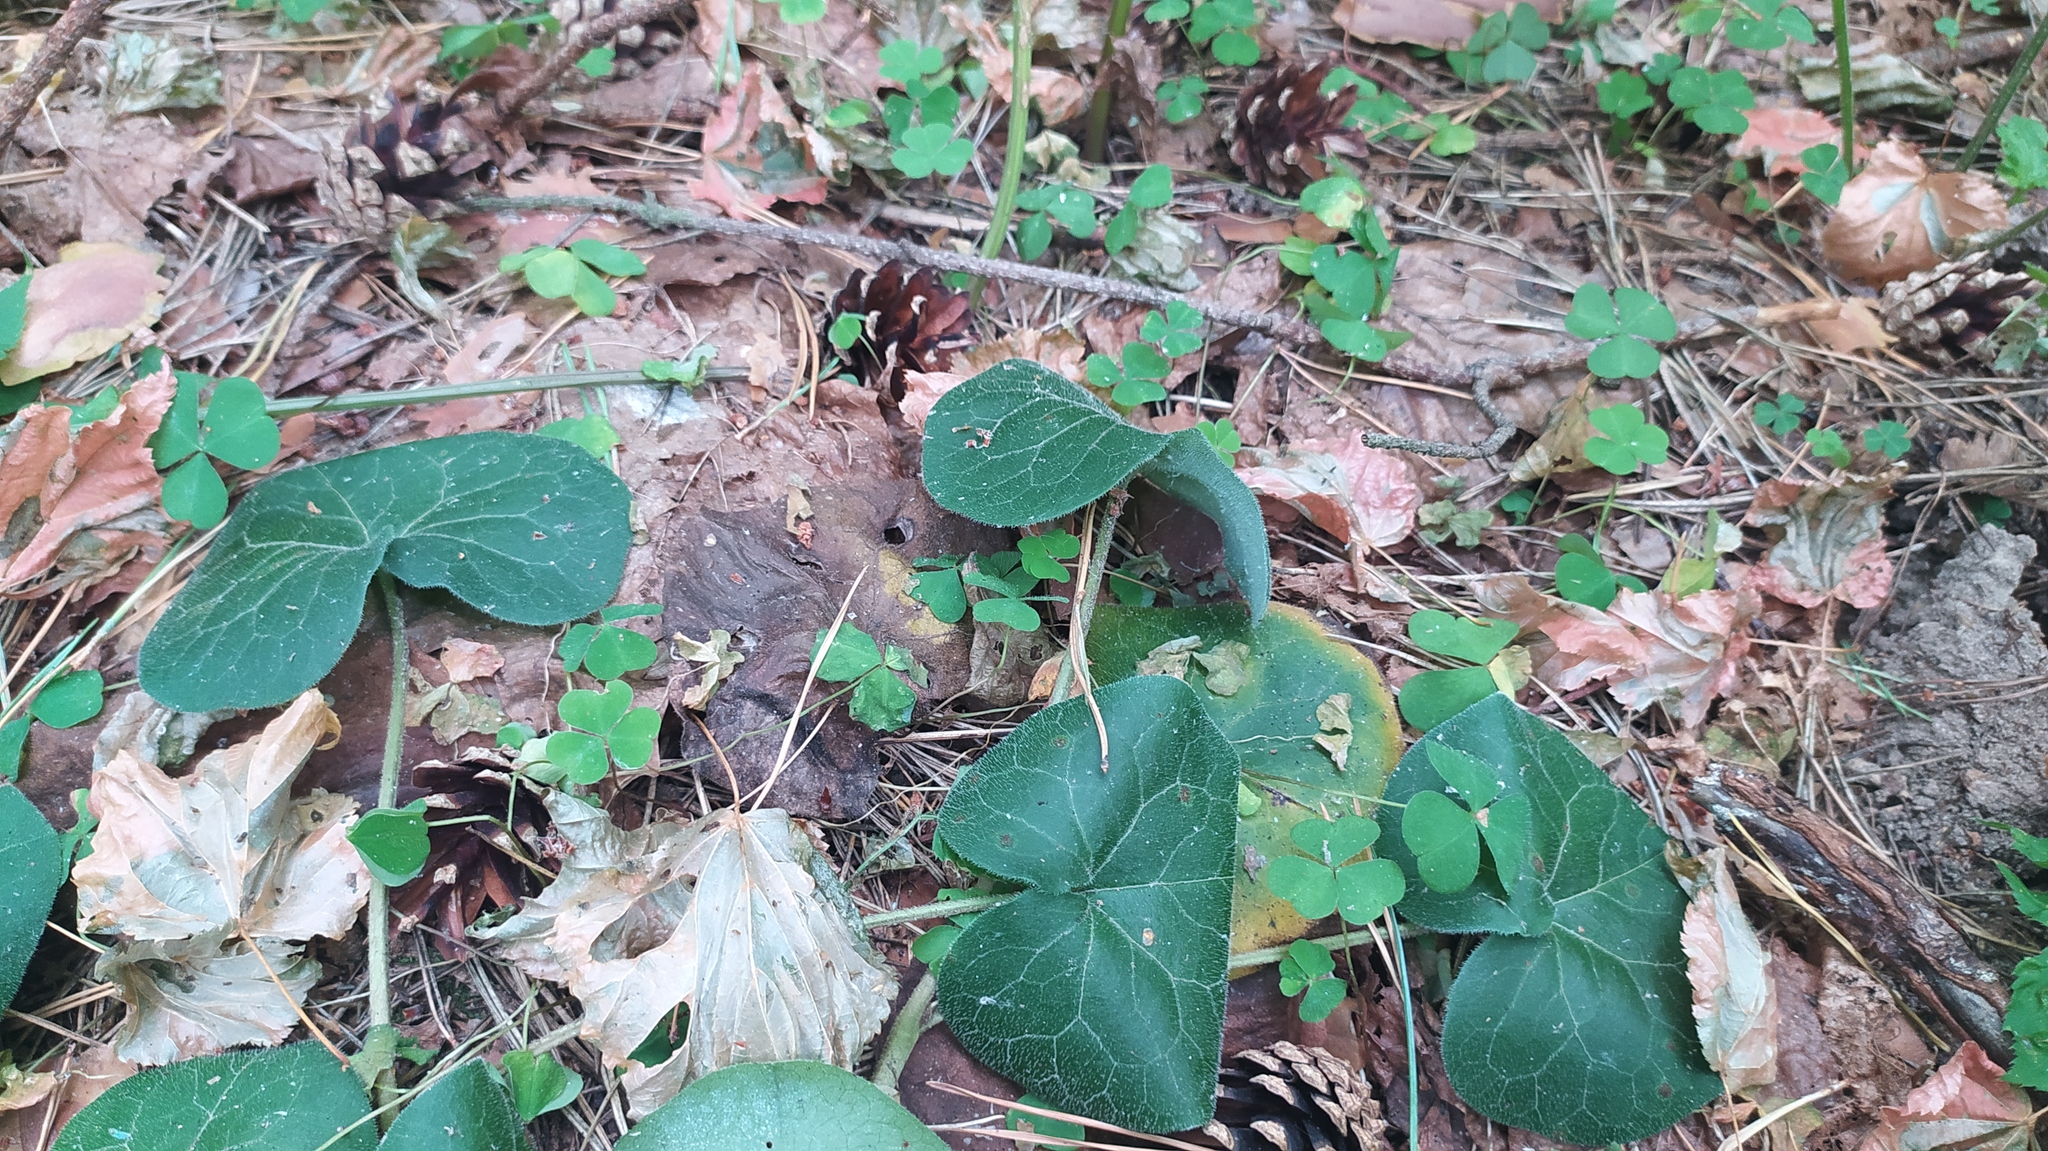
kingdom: Plantae
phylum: Tracheophyta
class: Magnoliopsida
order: Piperales
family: Aristolochiaceae
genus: Asarum
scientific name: Asarum europaeum
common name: Asarabacca
